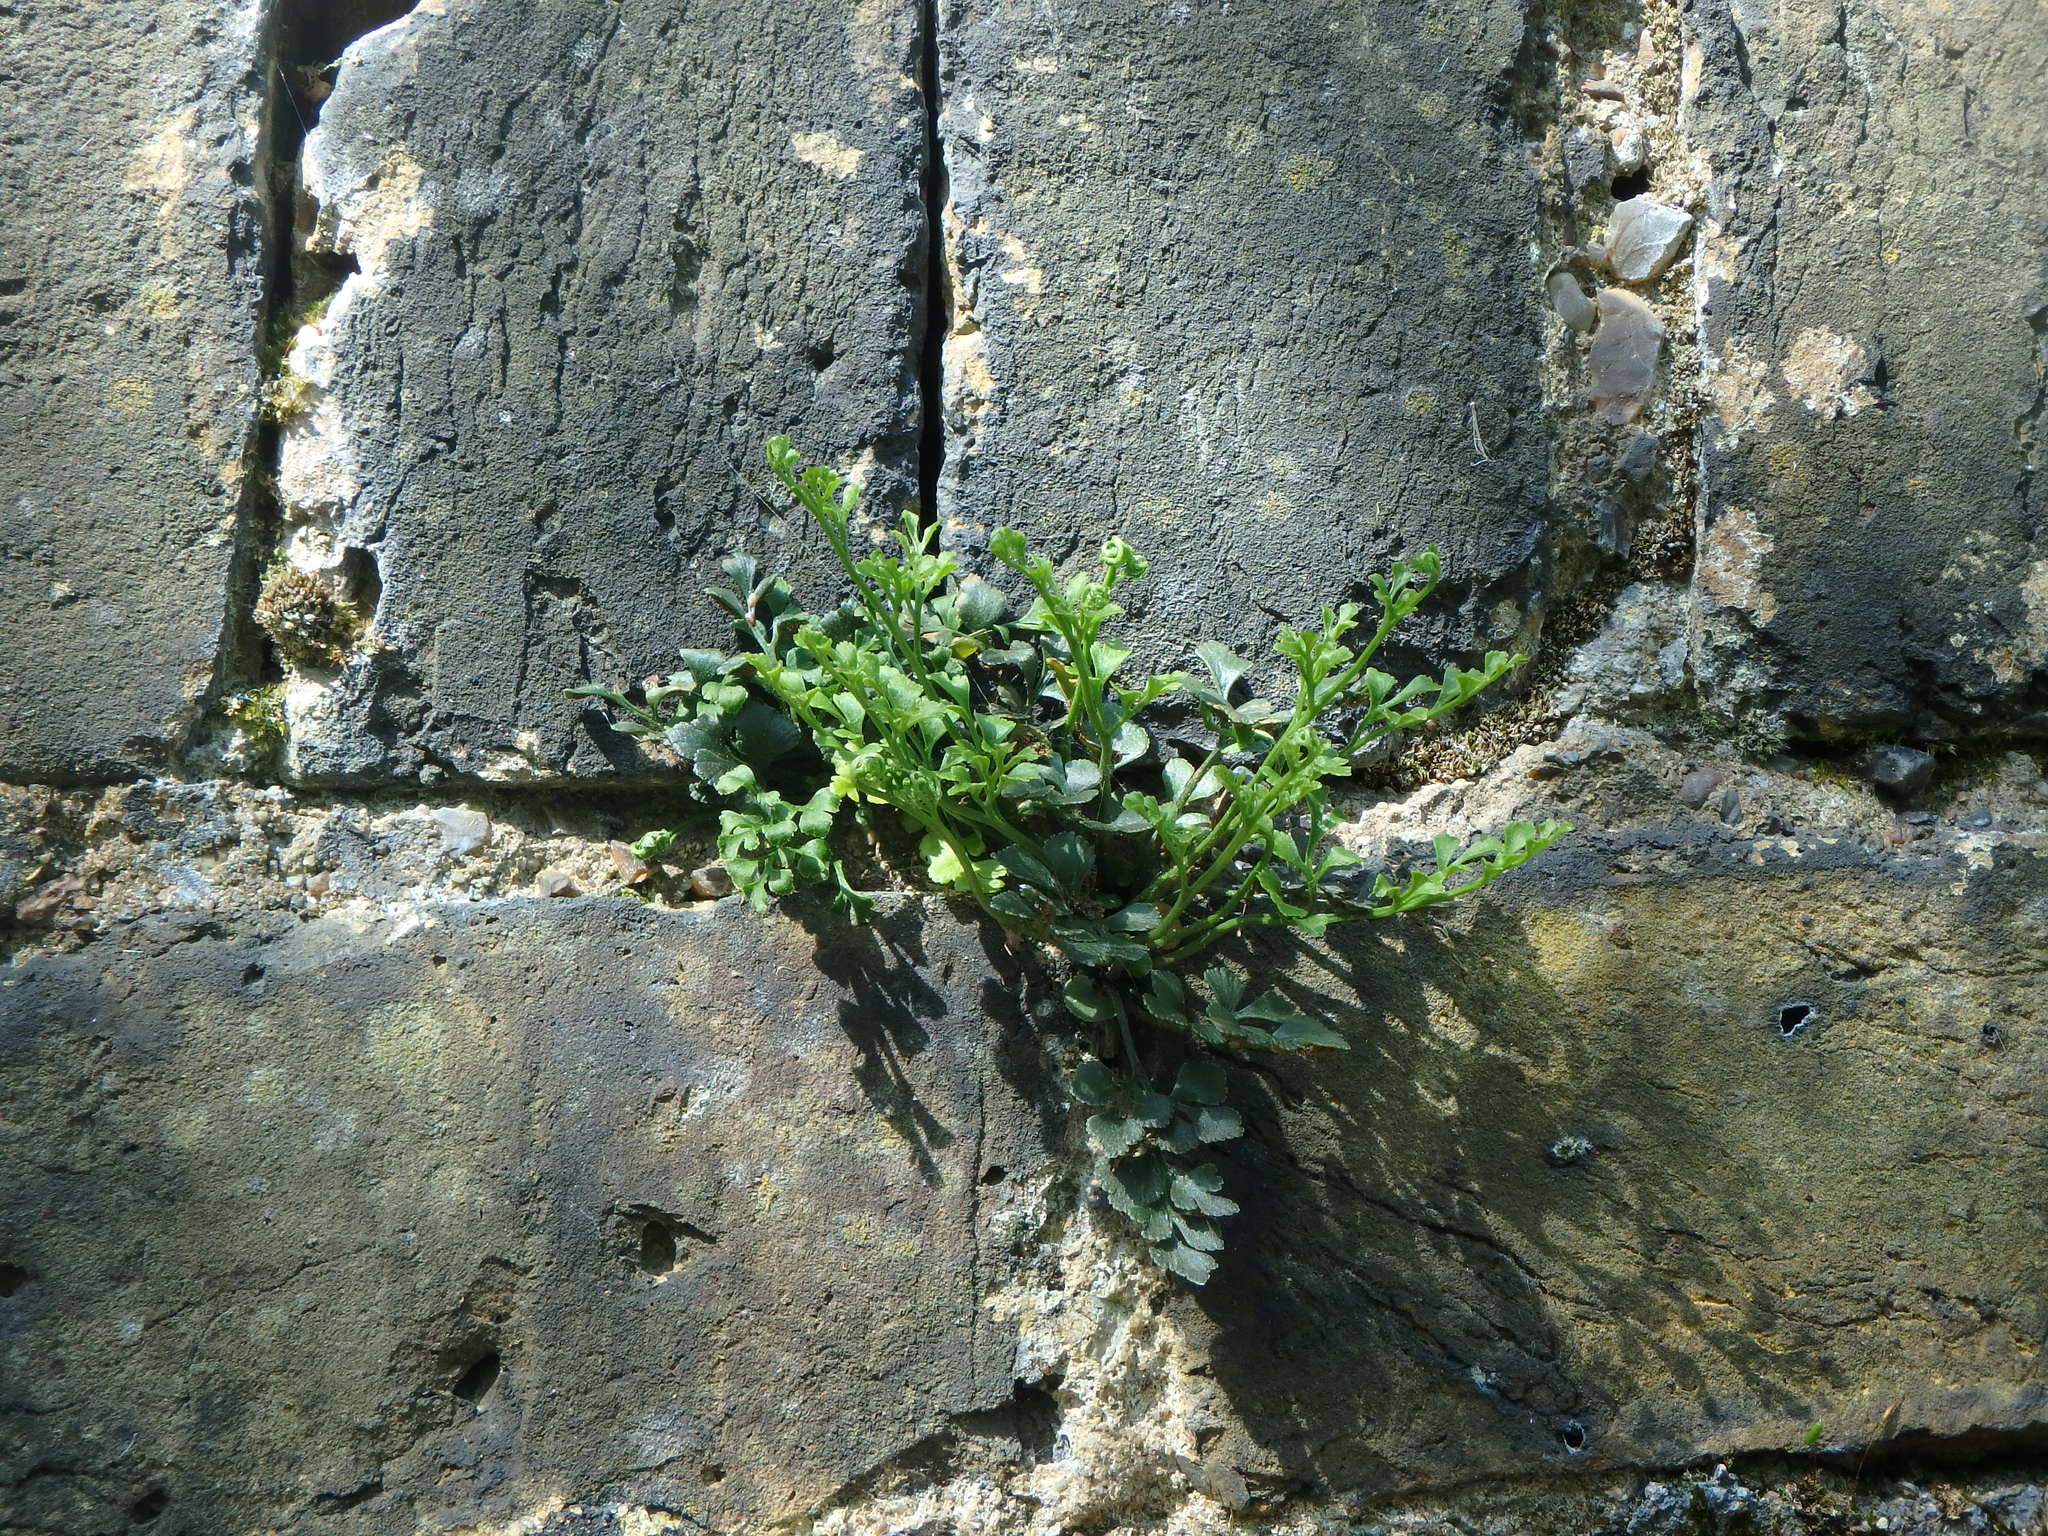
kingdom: Plantae
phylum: Tracheophyta
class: Polypodiopsida
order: Polypodiales
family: Aspleniaceae
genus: Asplenium
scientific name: Asplenium ruta-muraria
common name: Wall-rue
